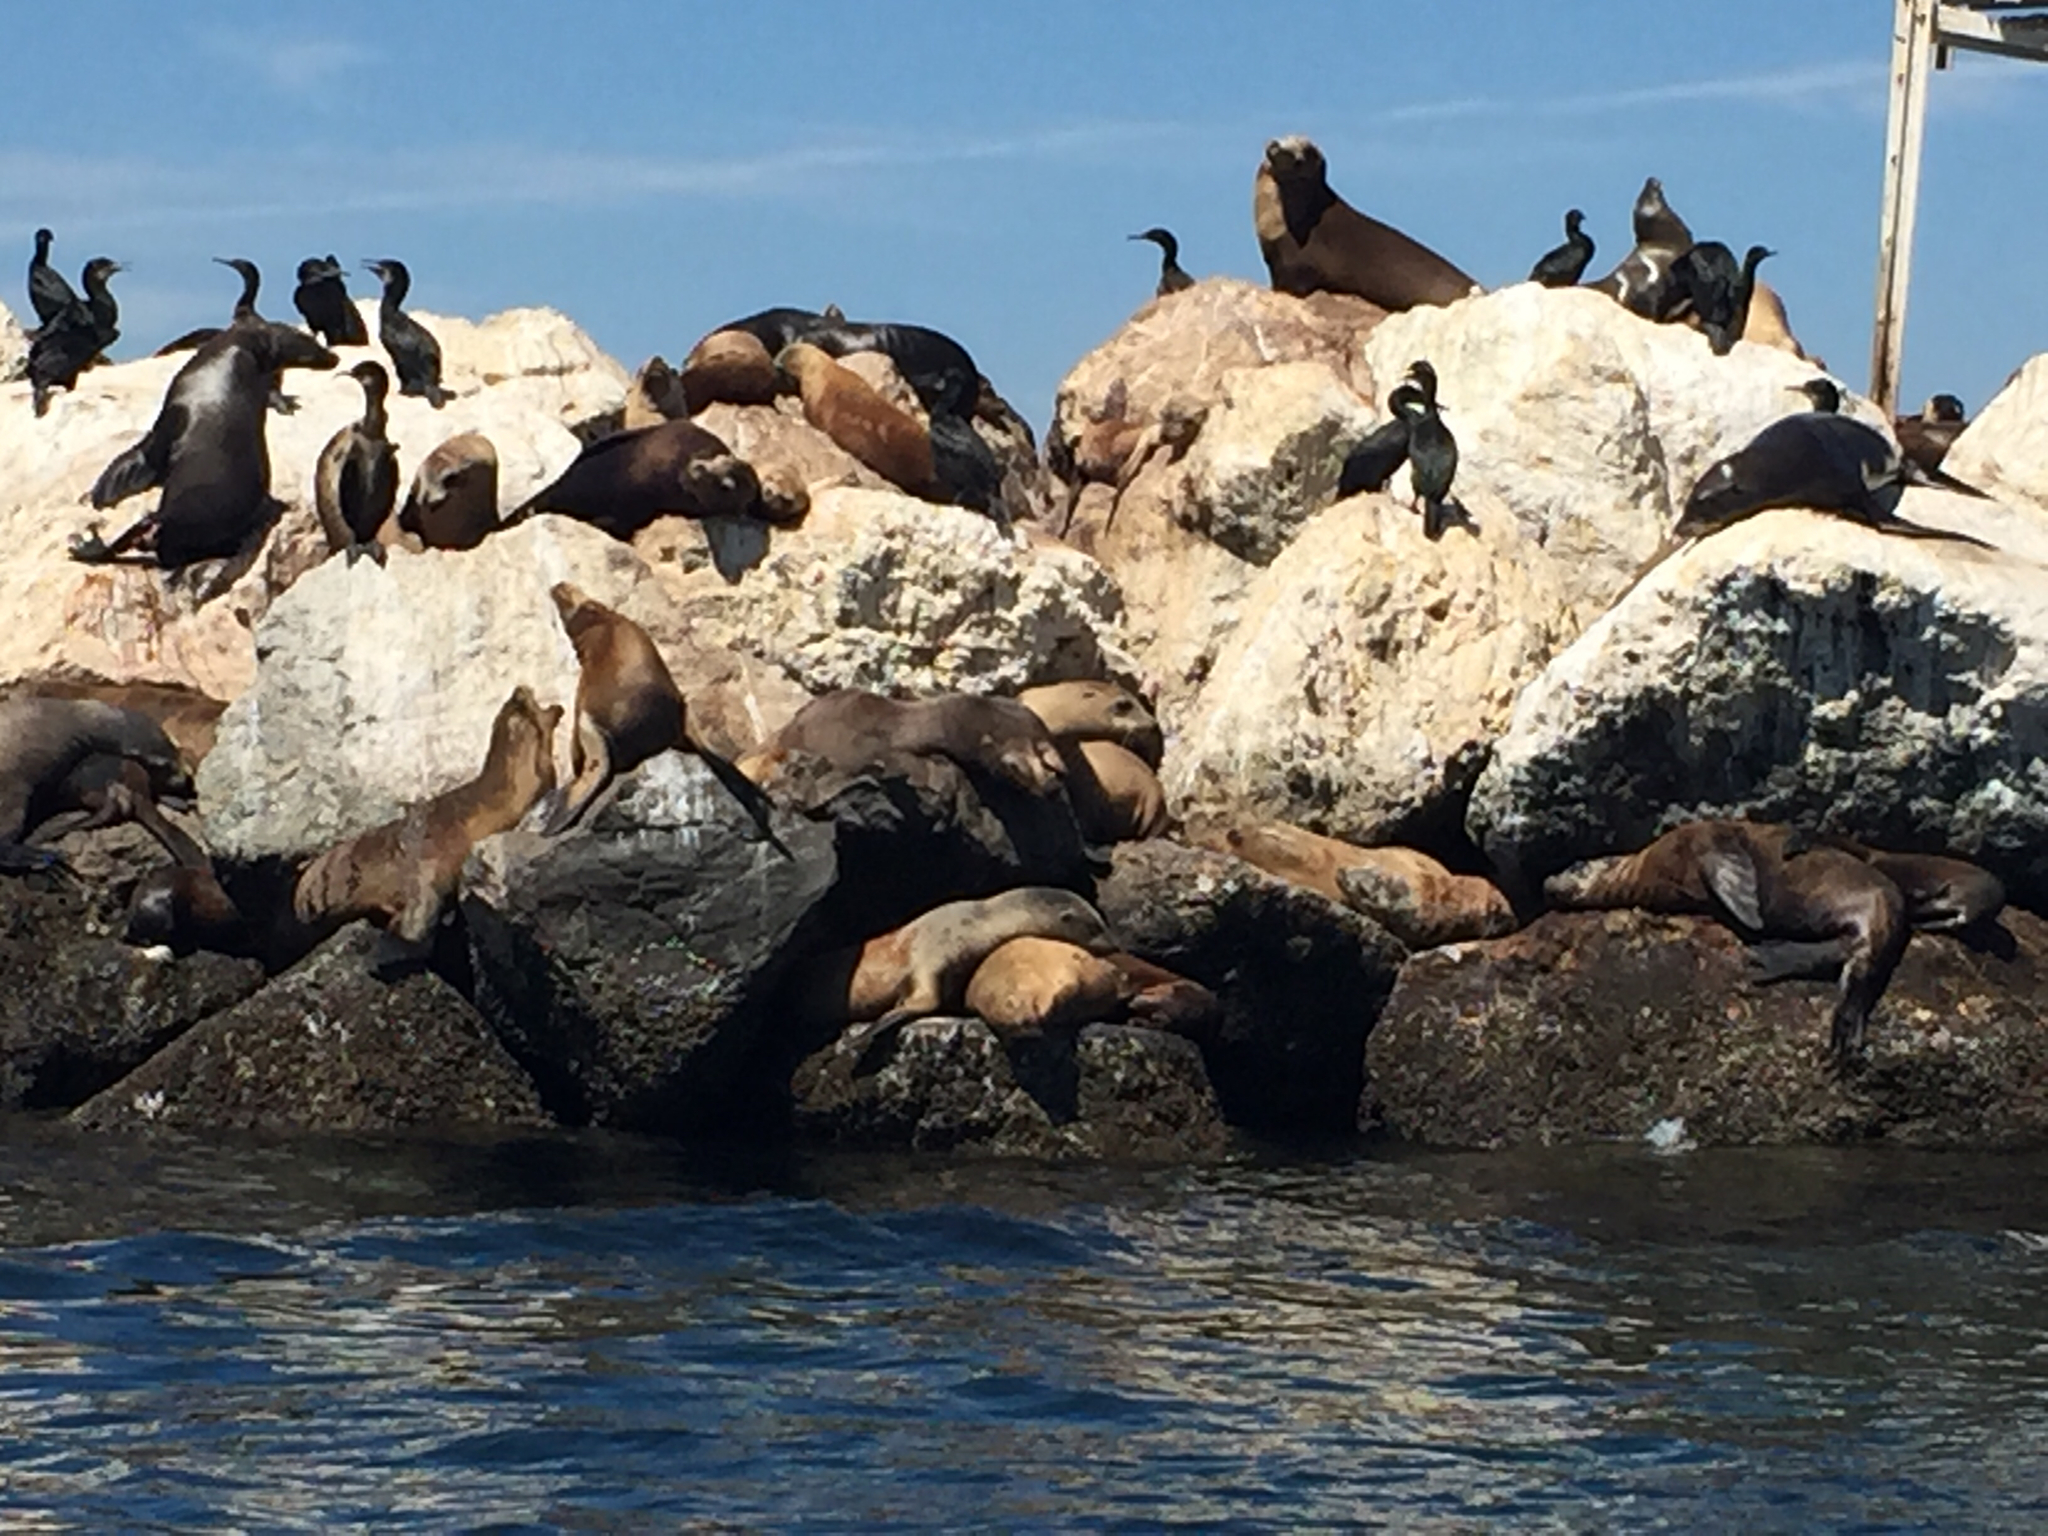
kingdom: Animalia
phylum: Chordata
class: Mammalia
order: Carnivora
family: Otariidae
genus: Zalophus
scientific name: Zalophus californianus
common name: California sea lion
